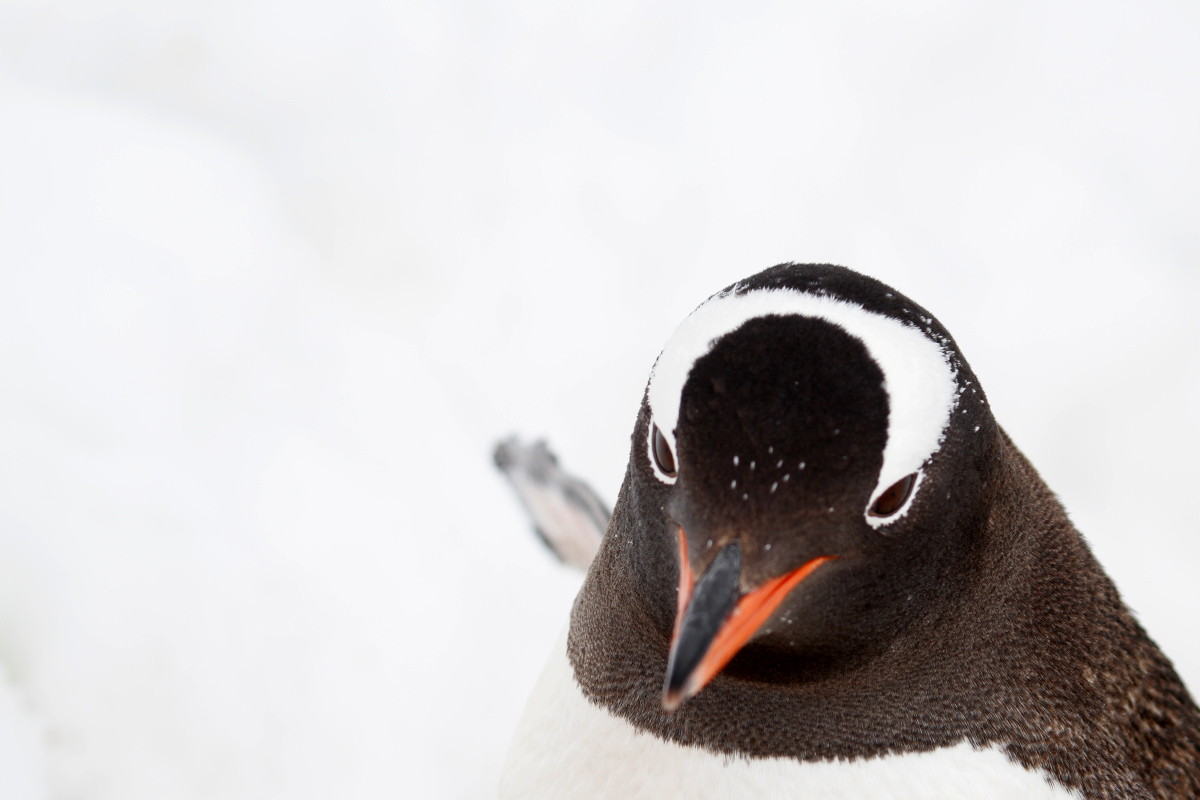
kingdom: Animalia
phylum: Chordata
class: Aves
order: Sphenisciformes
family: Spheniscidae
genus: Pygoscelis
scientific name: Pygoscelis papua
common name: Gentoo penguin
